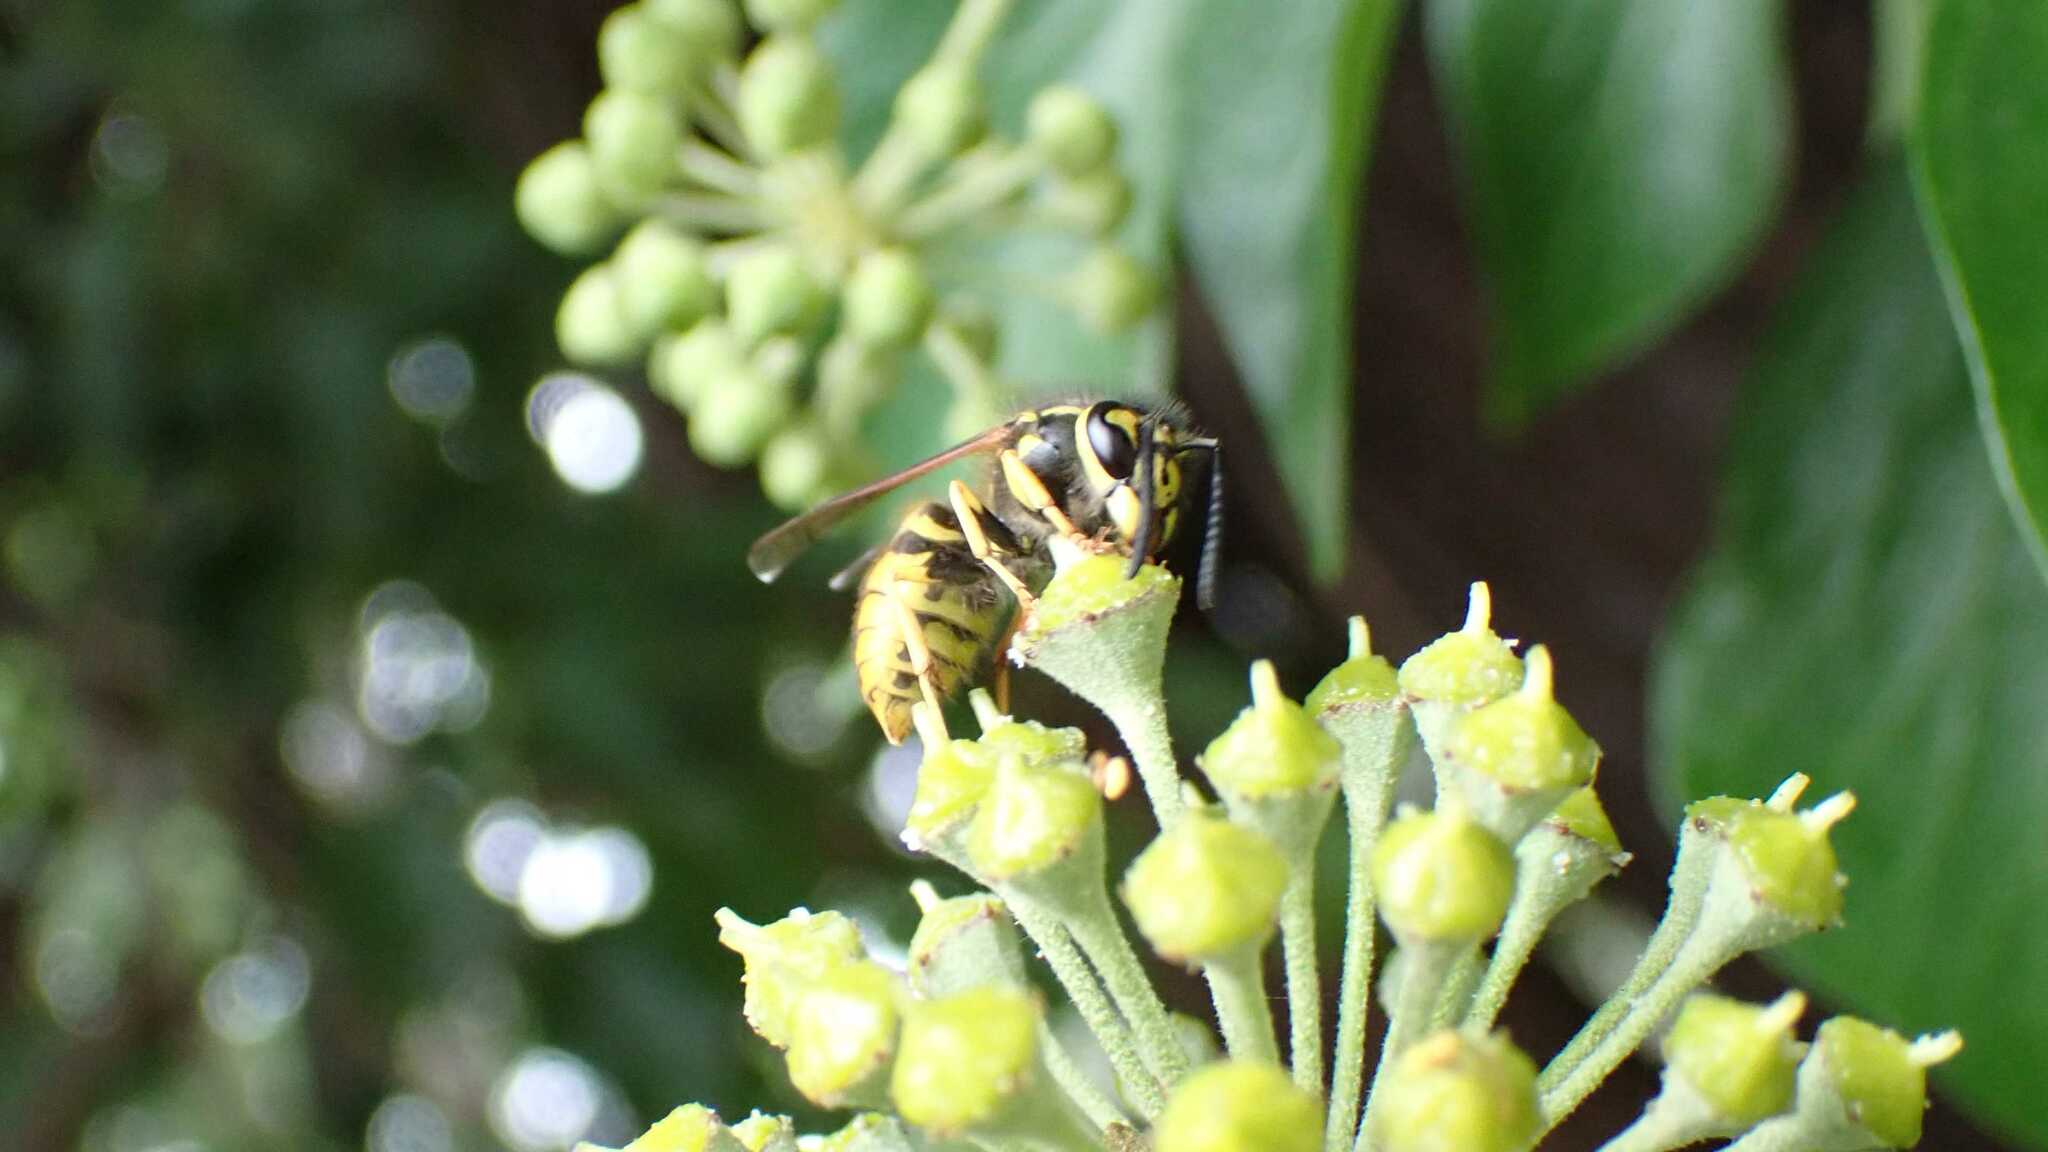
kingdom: Animalia
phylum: Arthropoda
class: Insecta
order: Hymenoptera
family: Vespidae
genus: Vespula
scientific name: Vespula germanica
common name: German wasp
